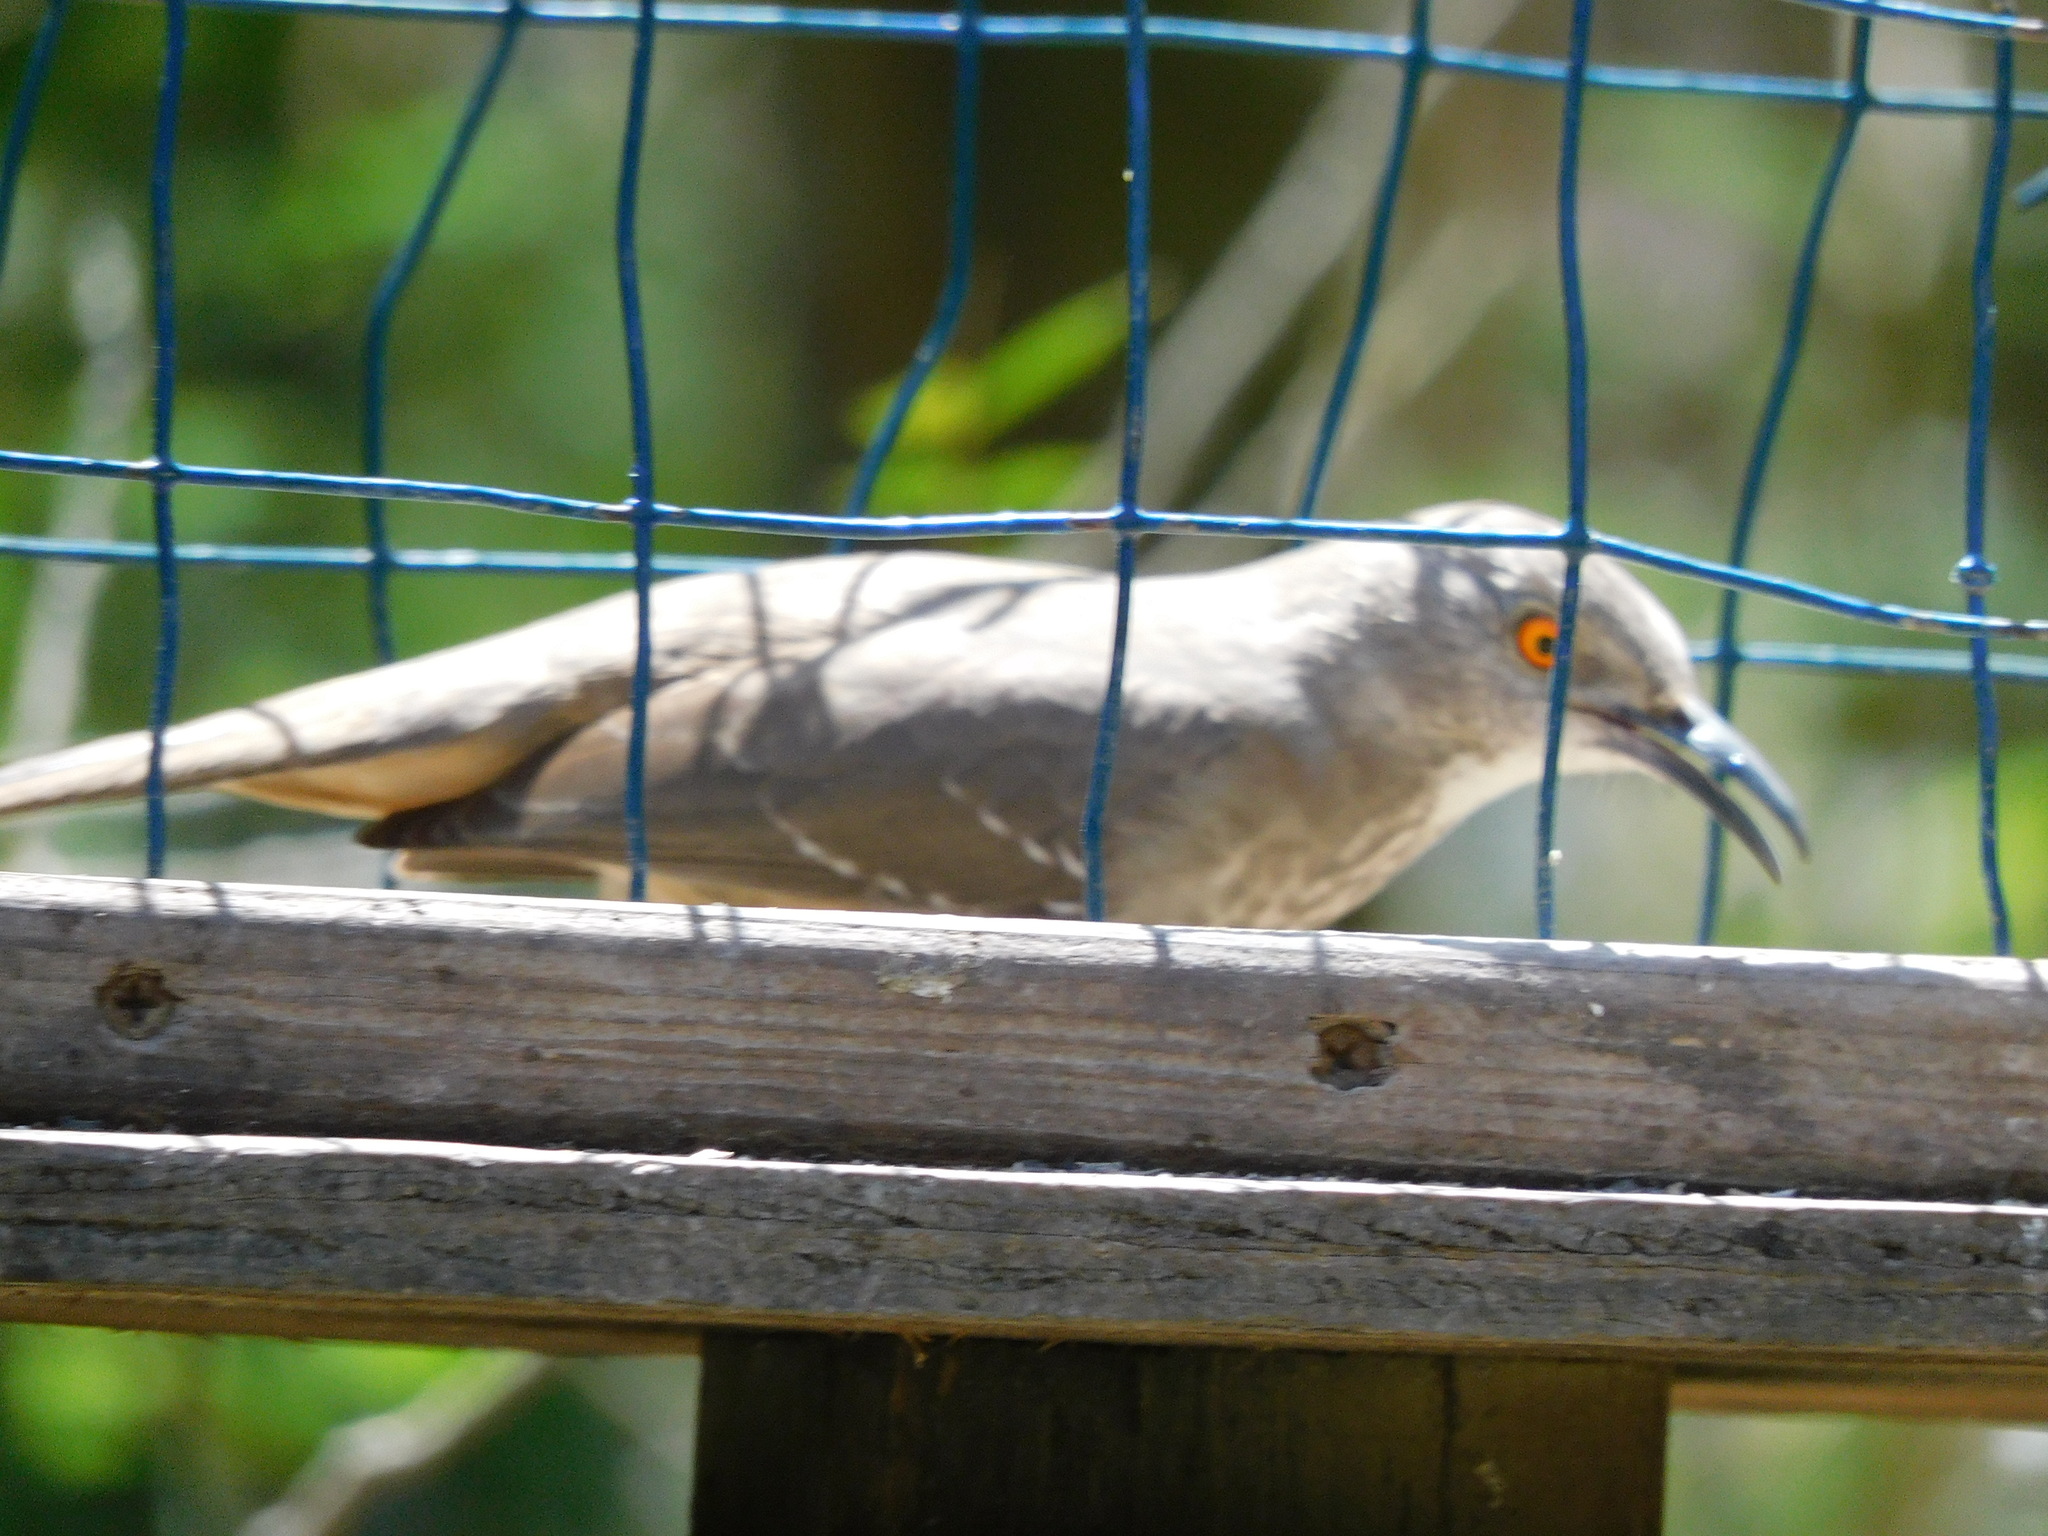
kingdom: Animalia
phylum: Chordata
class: Aves
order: Passeriformes
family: Mimidae
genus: Toxostoma
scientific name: Toxostoma curvirostre
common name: Curve-billed thrasher
